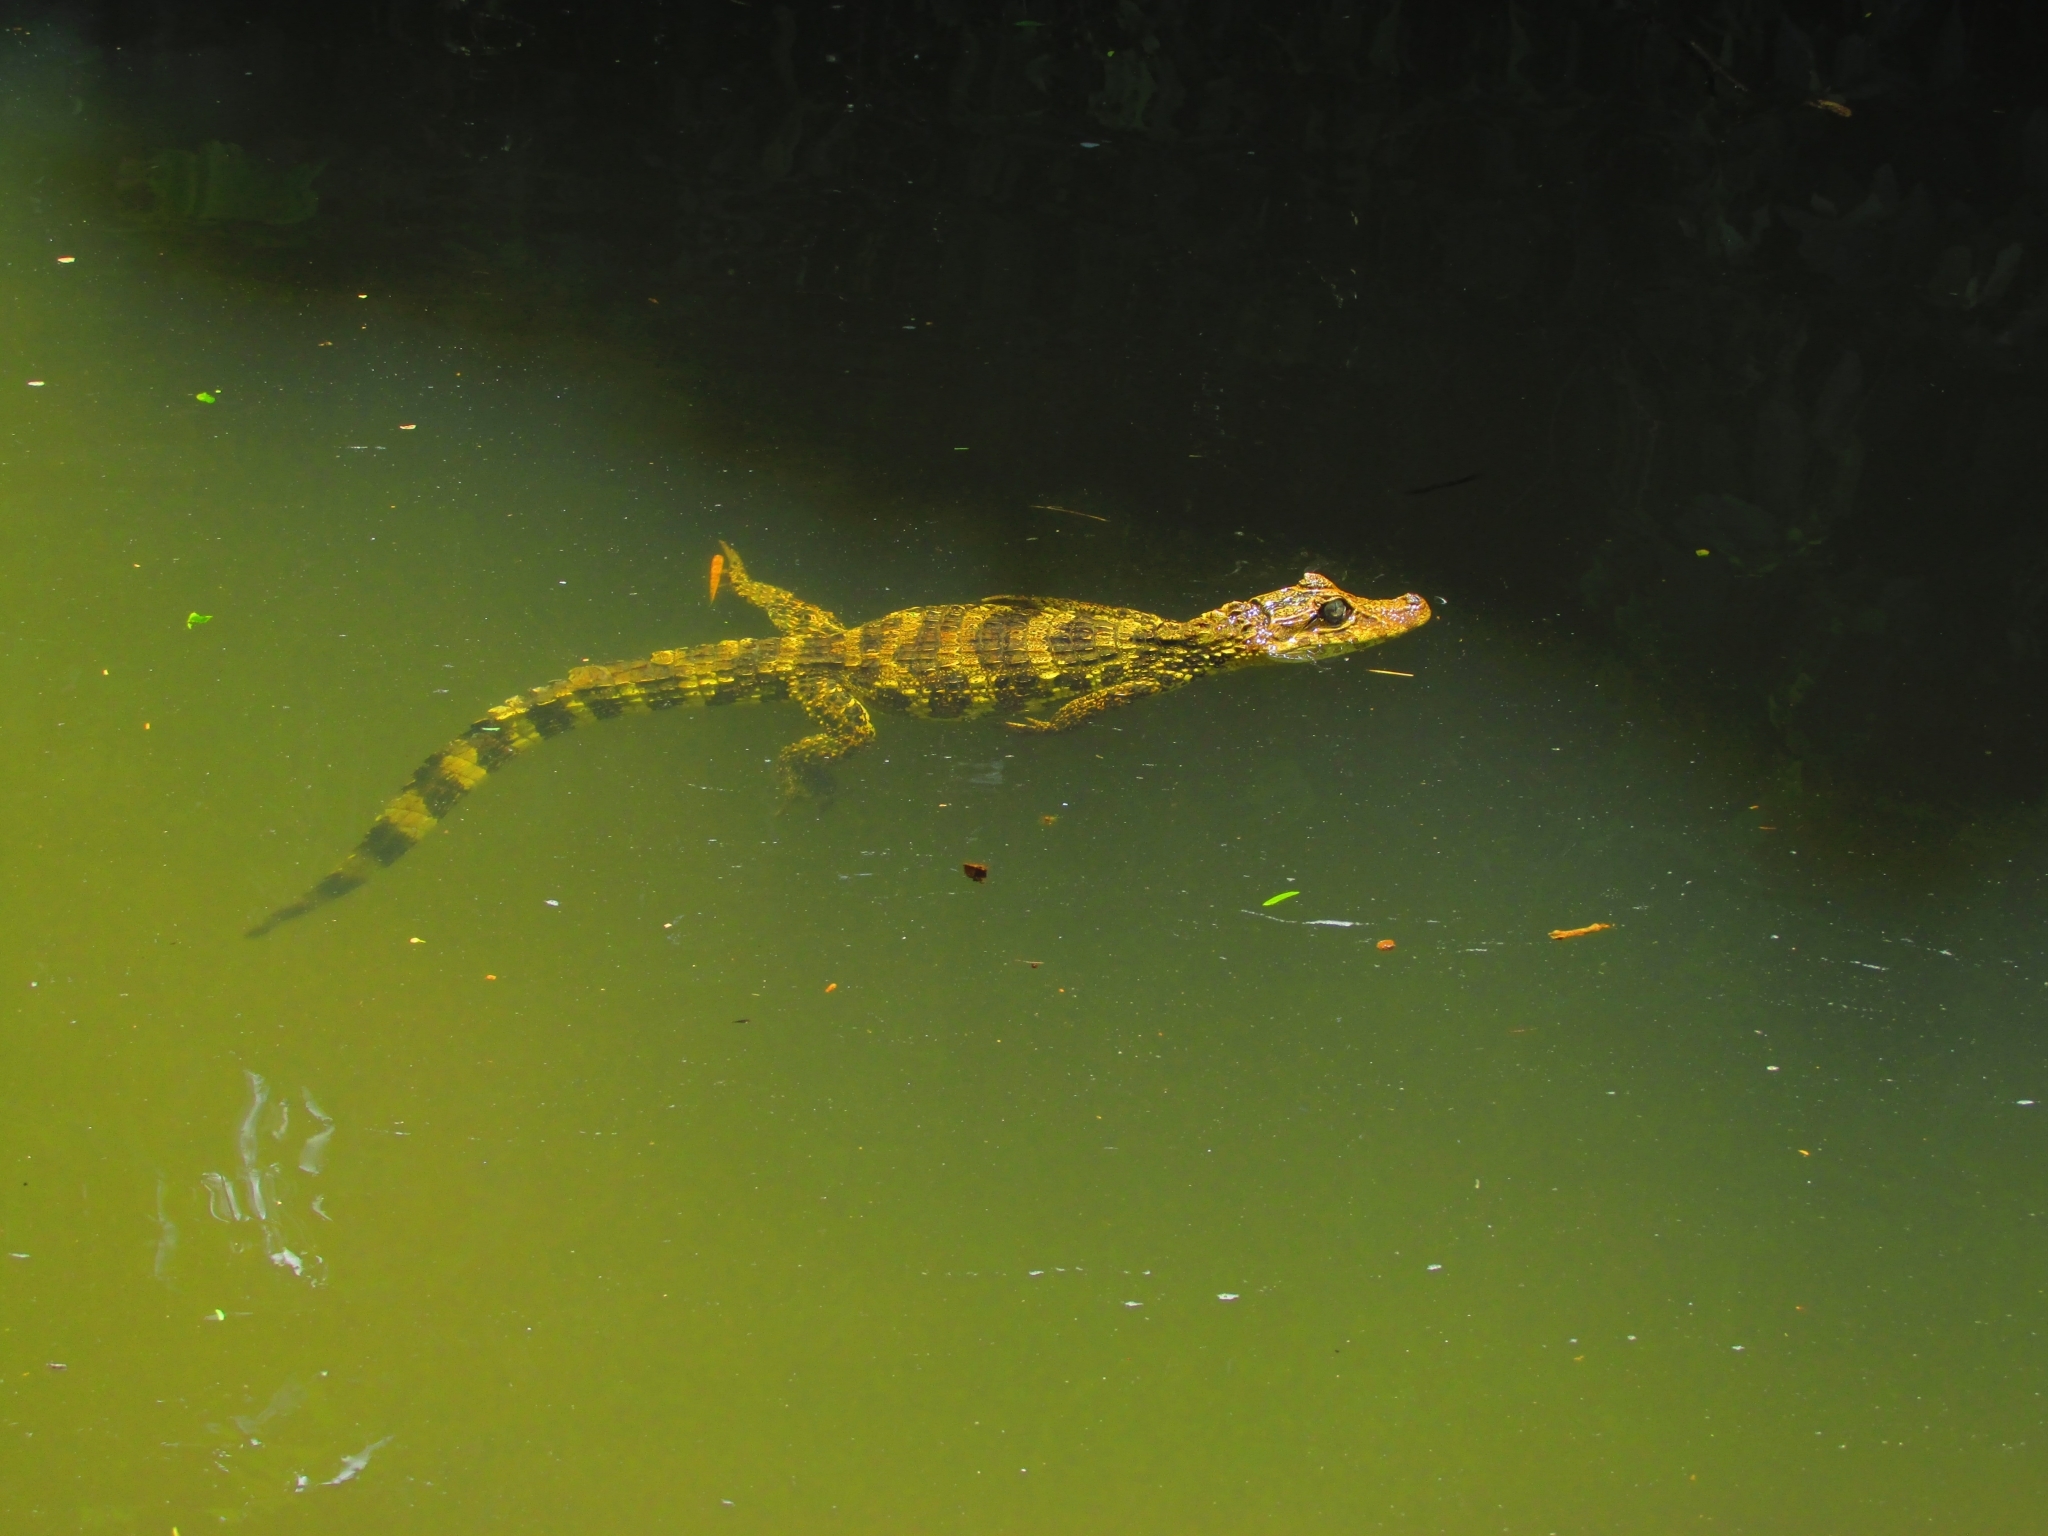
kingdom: Animalia
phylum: Chordata
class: Crocodylia
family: Alligatoridae
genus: Caiman
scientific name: Caiman latirostris
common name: Broad-snouted caiman
